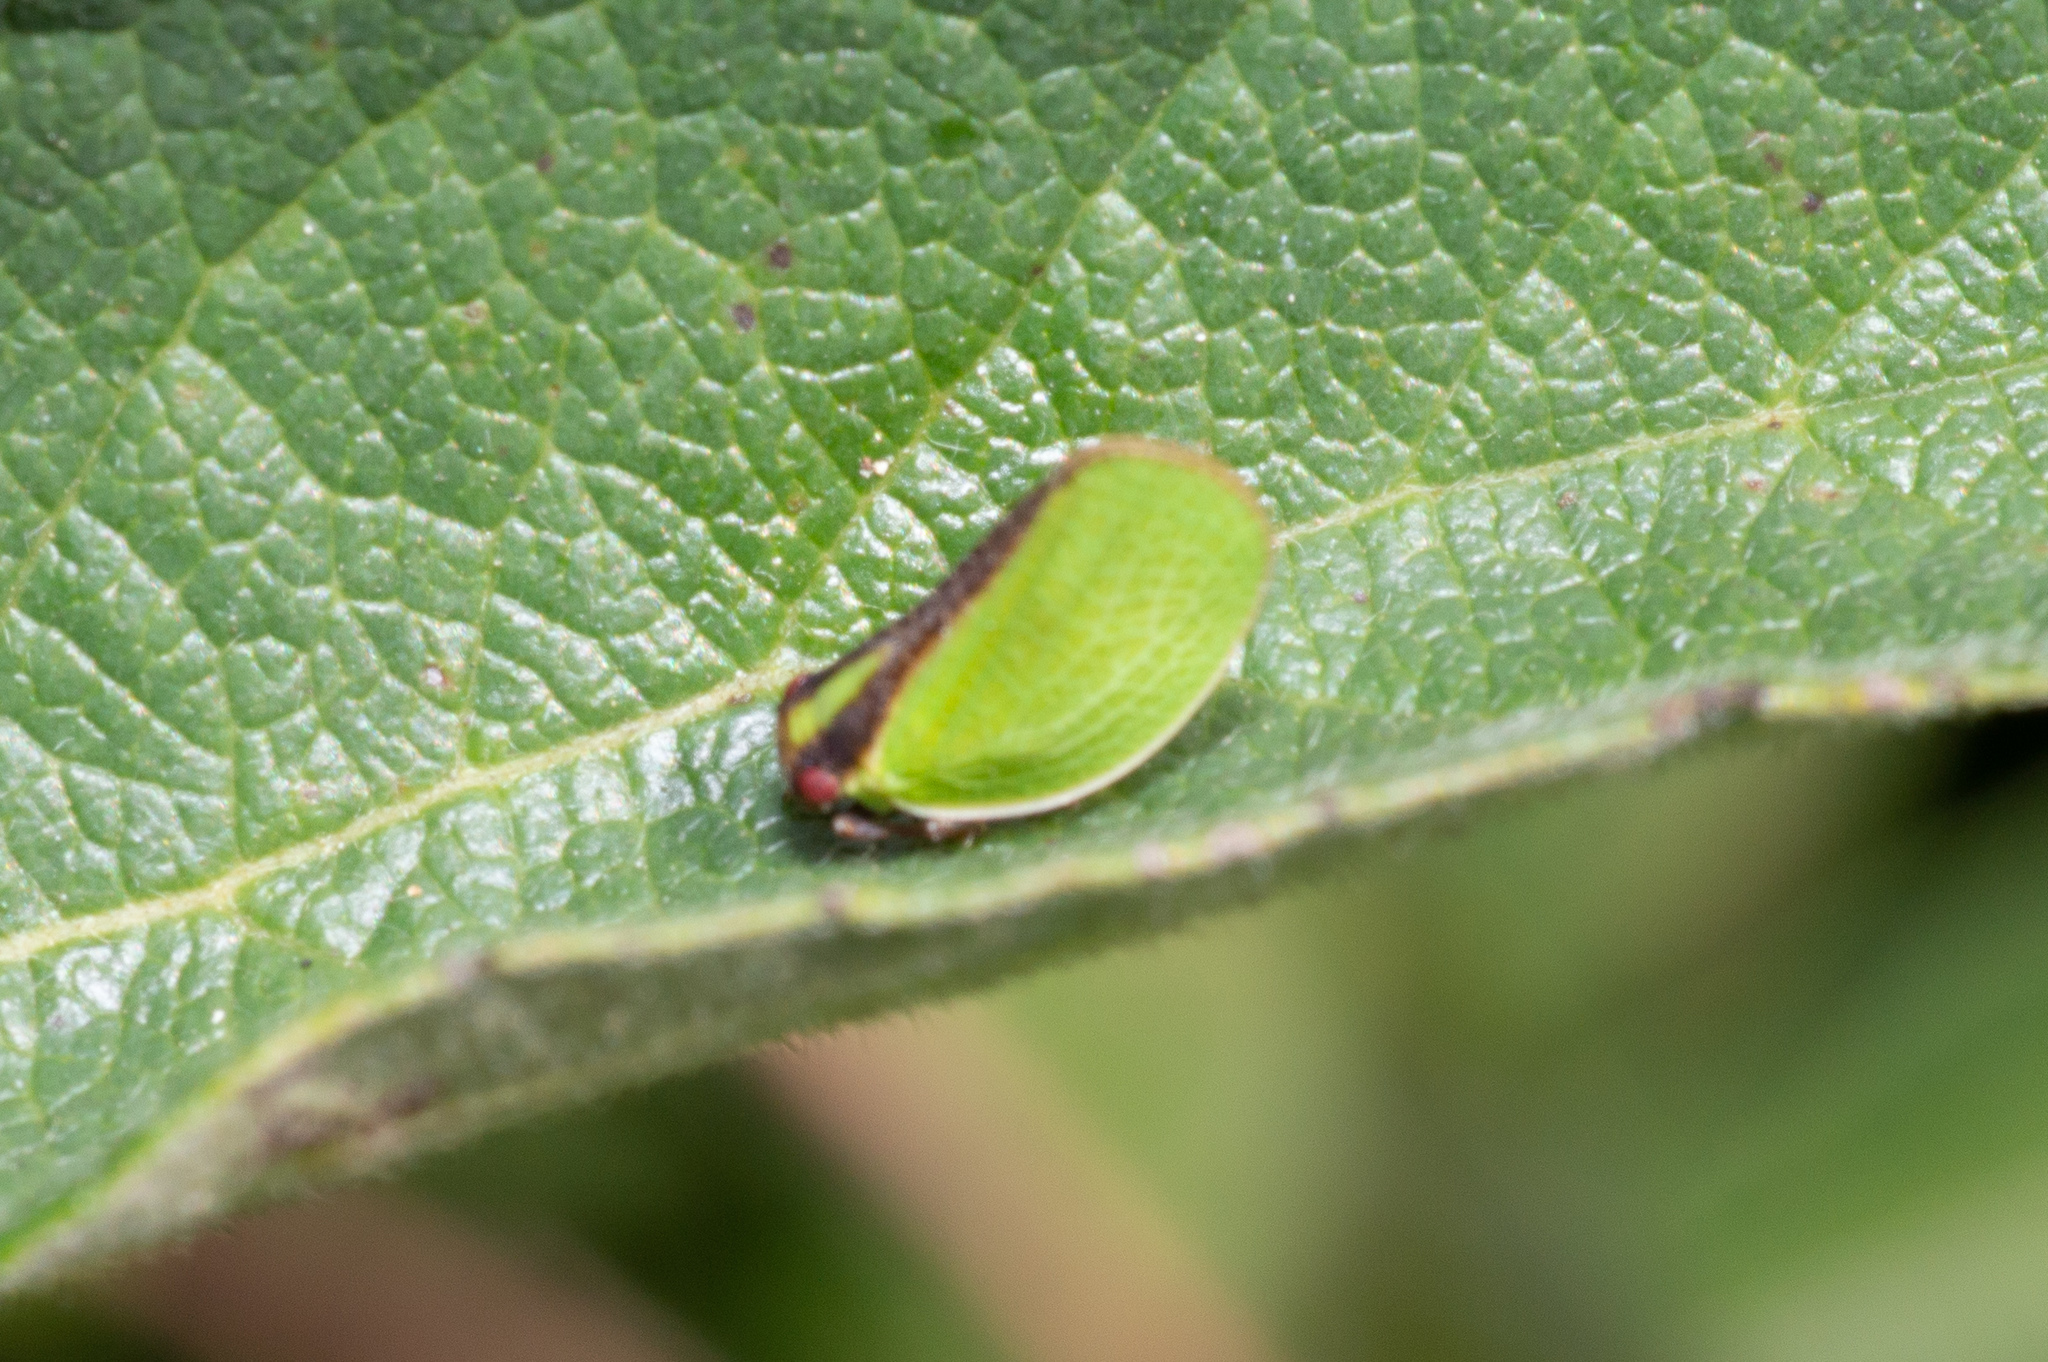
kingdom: Animalia
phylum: Arthropoda
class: Insecta
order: Hemiptera
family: Acanaloniidae
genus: Acanalonia
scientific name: Acanalonia bivittata
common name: Two-striped planthopper
